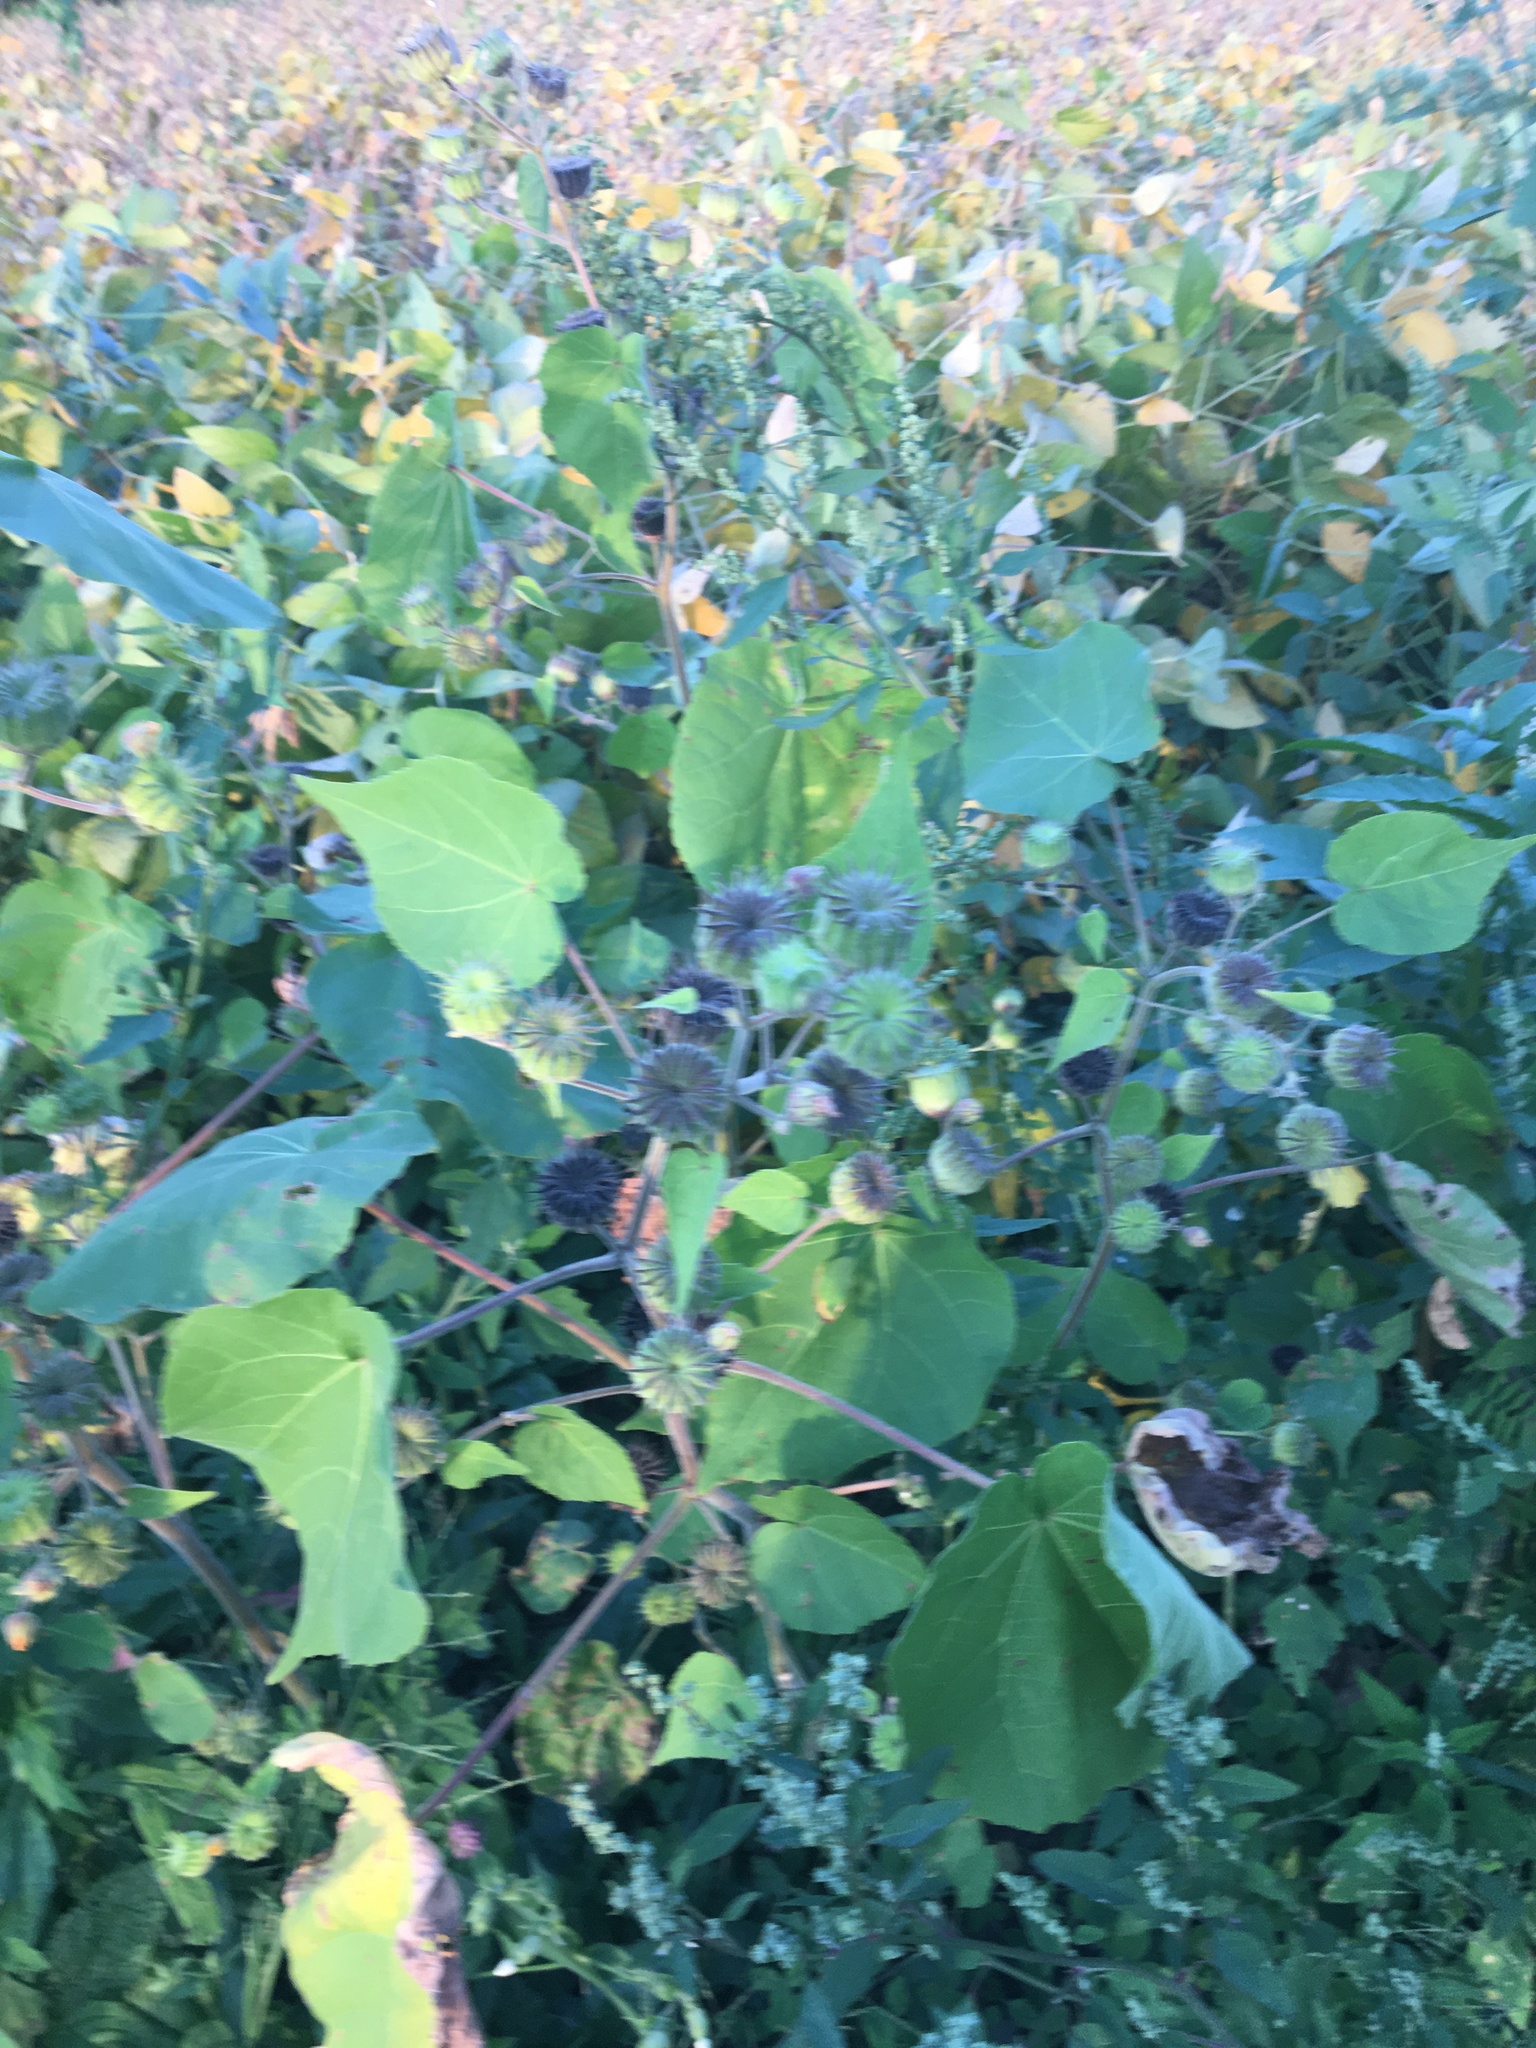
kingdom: Plantae
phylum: Tracheophyta
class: Magnoliopsida
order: Malvales
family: Malvaceae
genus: Abutilon
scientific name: Abutilon theophrasti
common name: Velvetleaf
